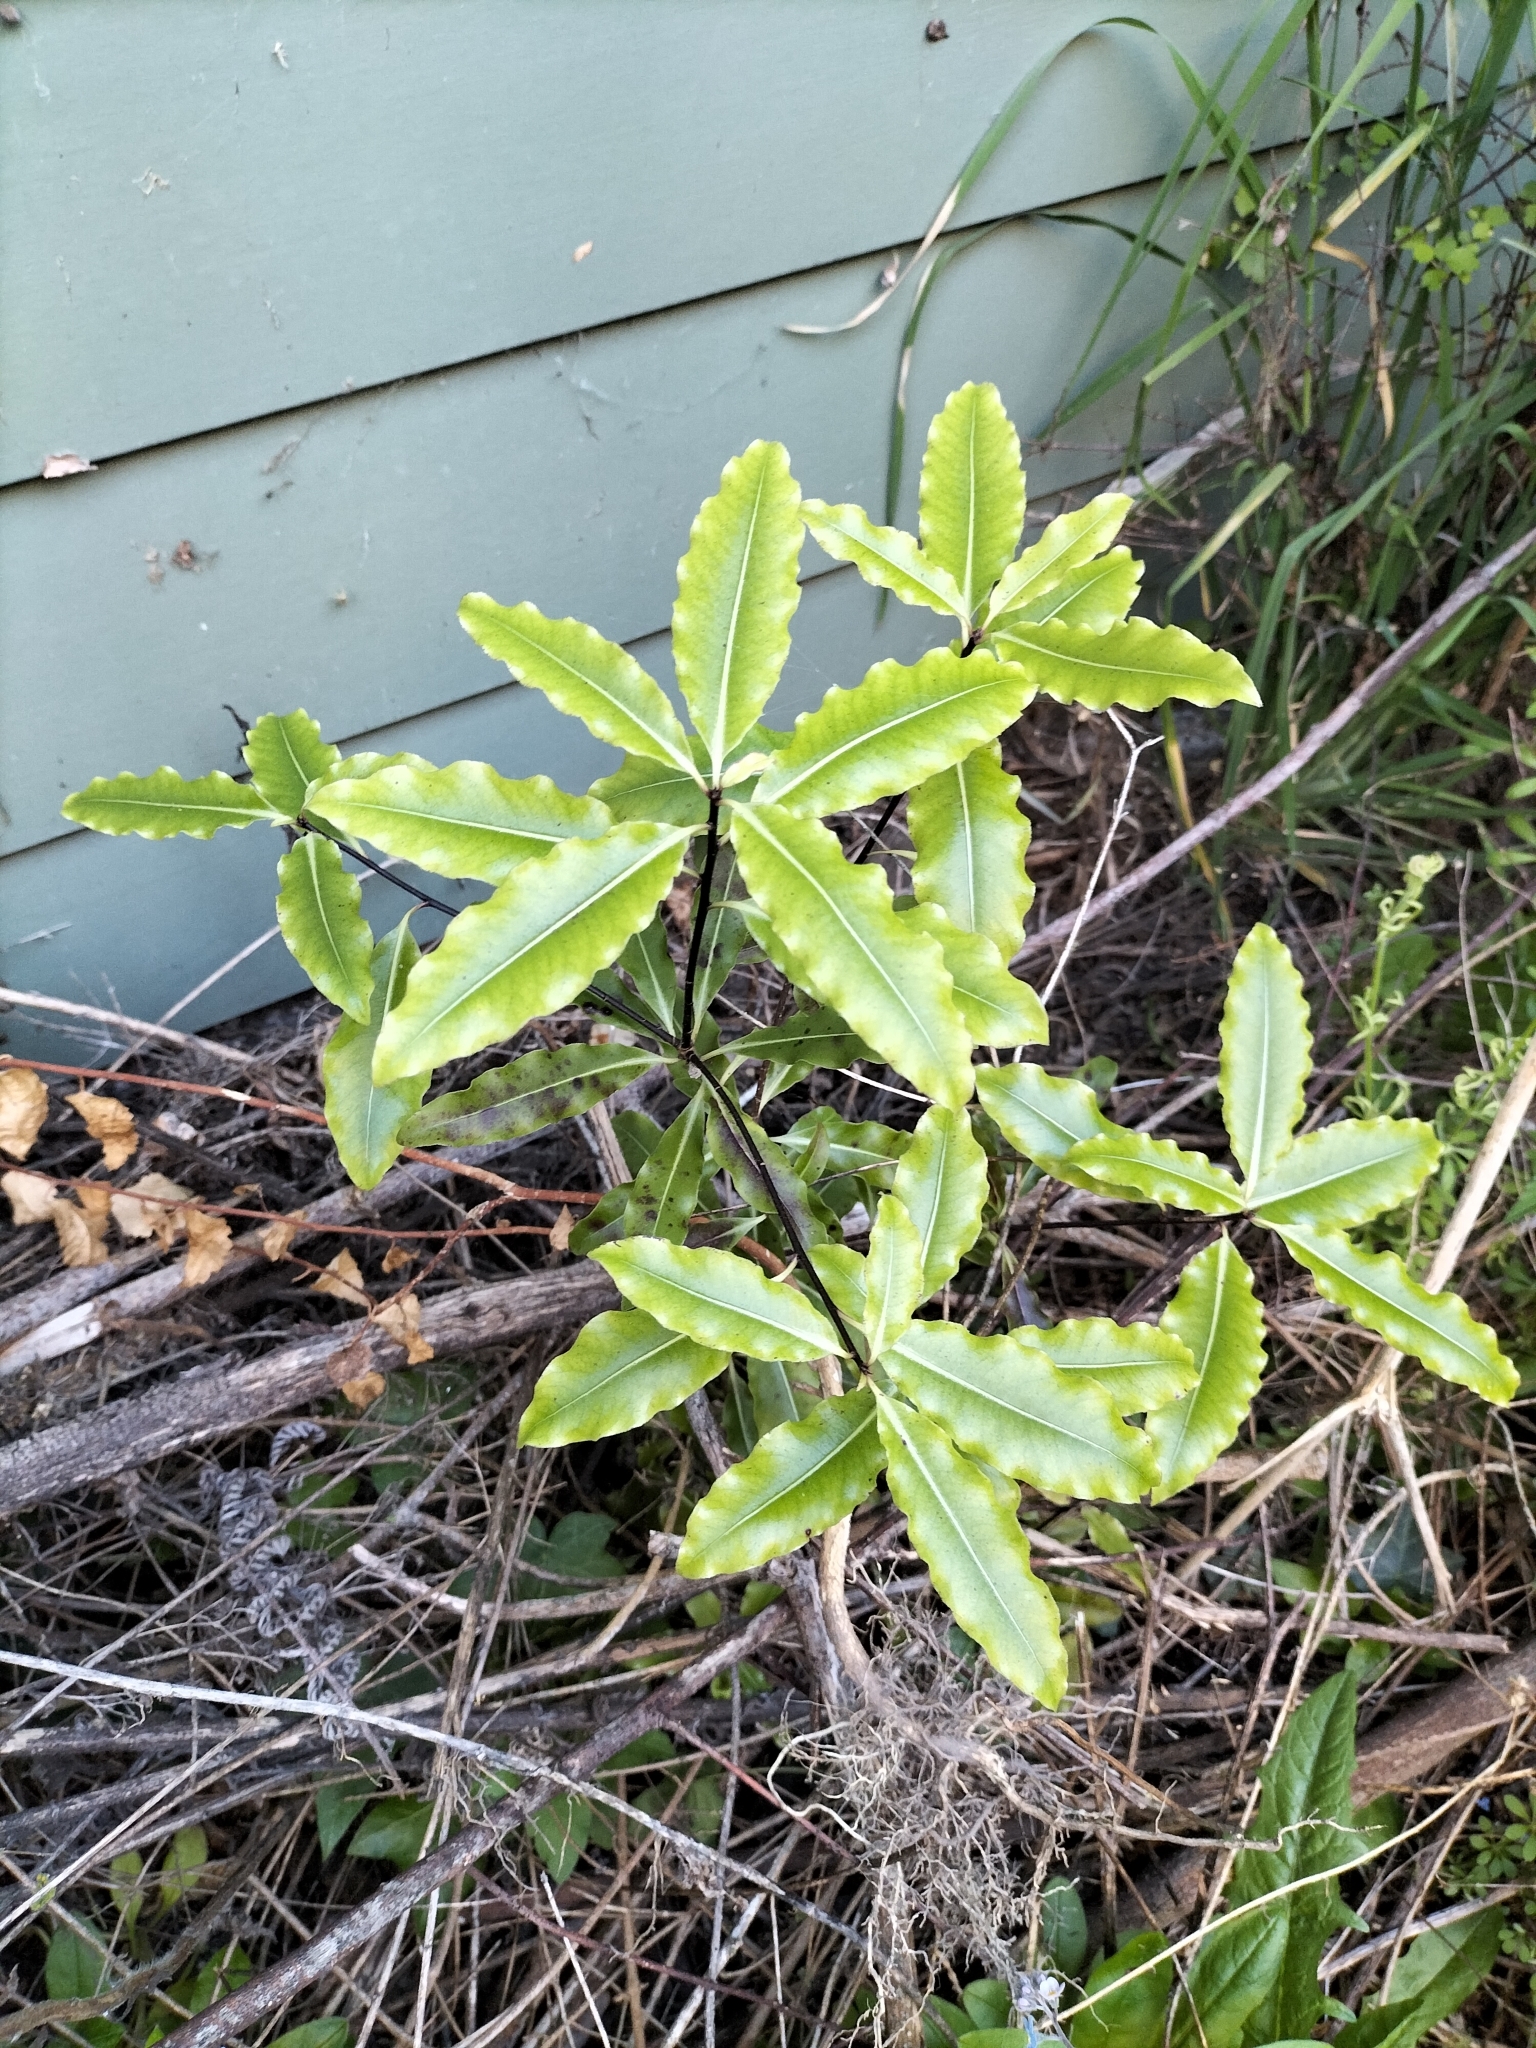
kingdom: Plantae
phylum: Tracheophyta
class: Magnoliopsida
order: Apiales
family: Pittosporaceae
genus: Pittosporum
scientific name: Pittosporum eugenioides
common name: Lemonwood
